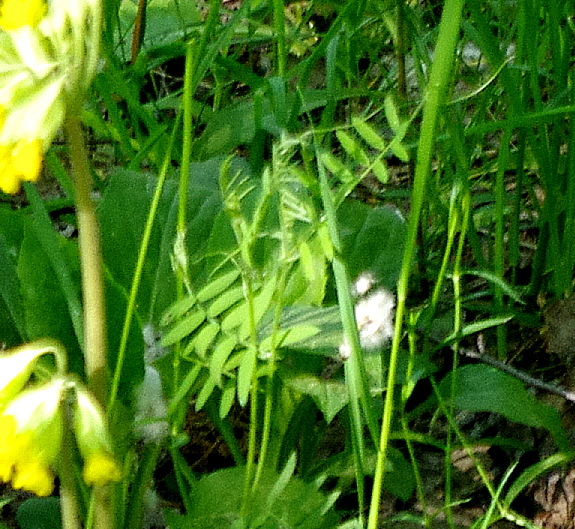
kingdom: Plantae
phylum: Tracheophyta
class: Magnoliopsida
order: Fabales
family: Fabaceae
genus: Vicia
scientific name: Vicia cracca
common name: Bird vetch
